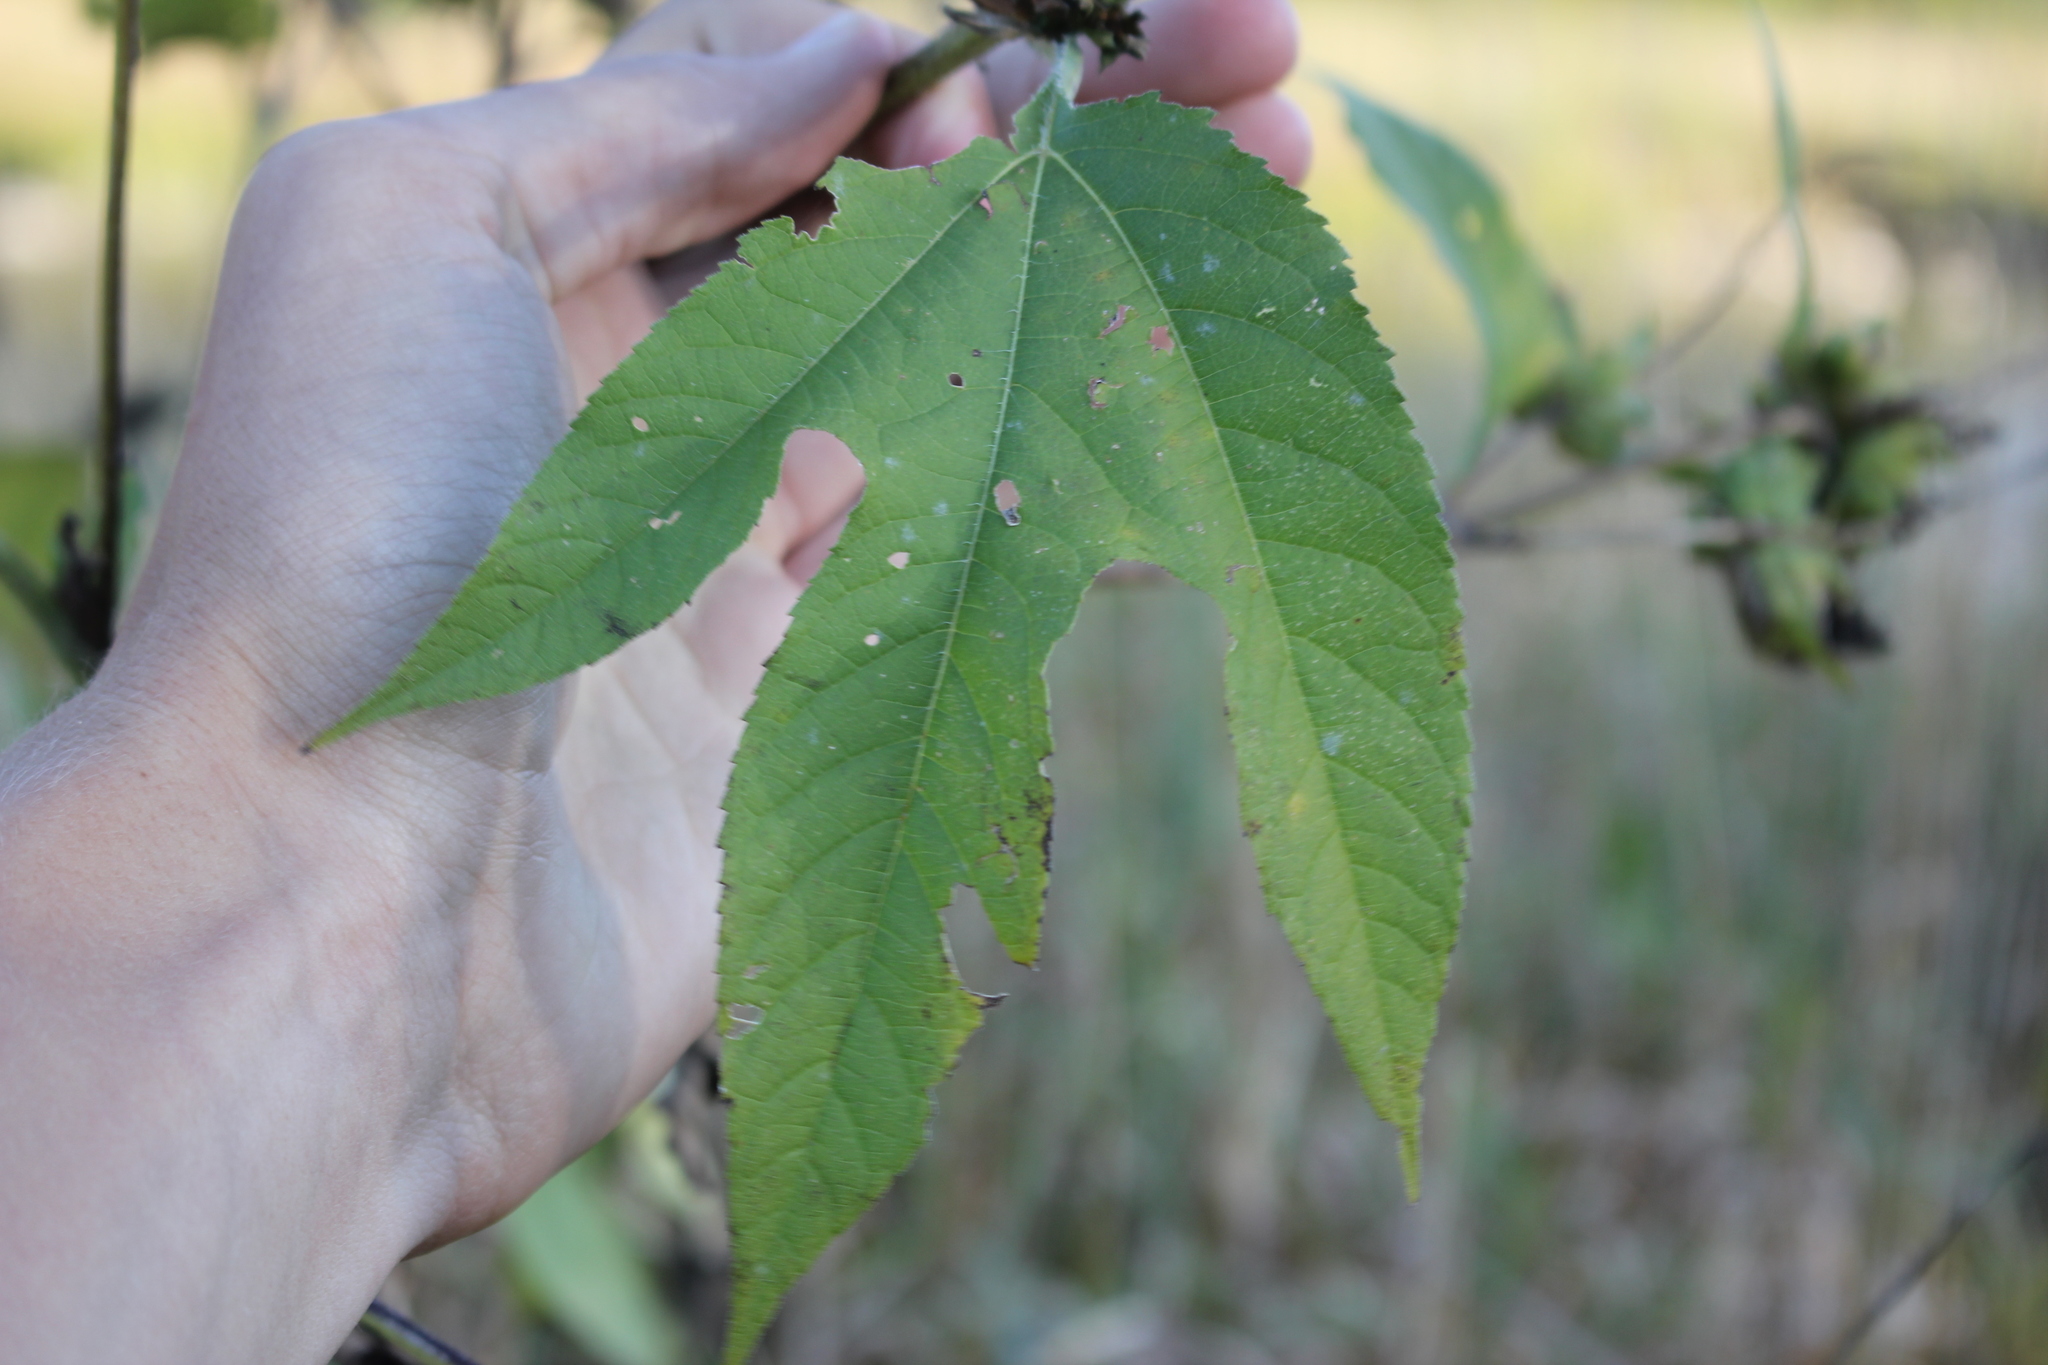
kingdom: Plantae
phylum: Tracheophyta
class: Magnoliopsida
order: Asterales
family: Asteraceae
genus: Ambrosia
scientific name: Ambrosia trifida
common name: Giant ragweed
